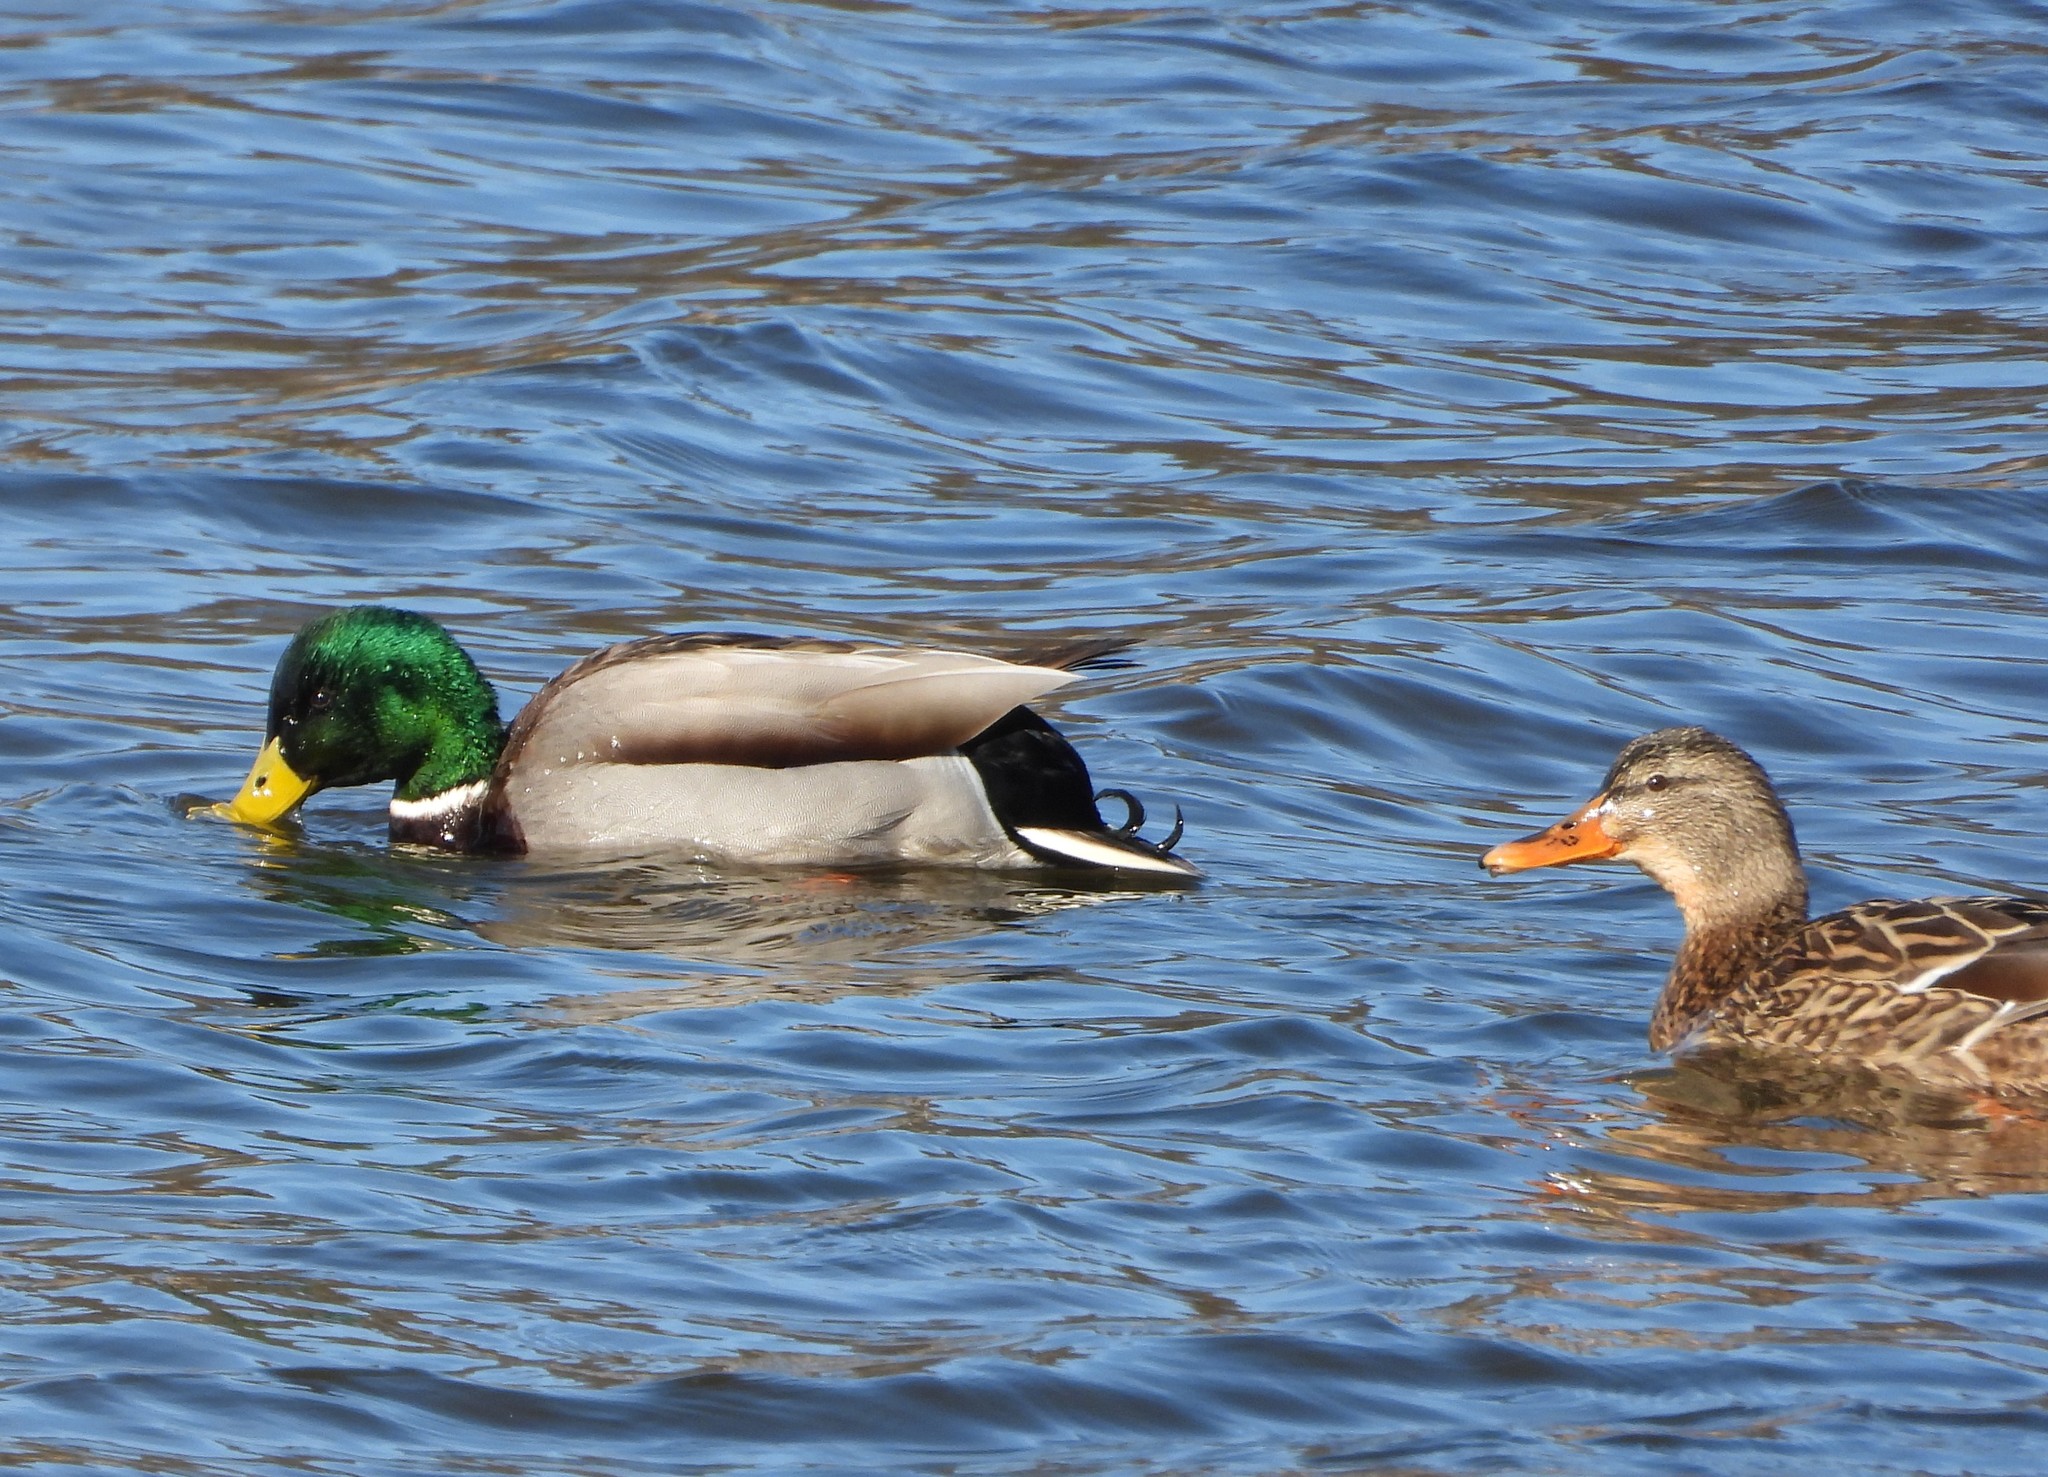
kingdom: Animalia
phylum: Chordata
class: Aves
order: Anseriformes
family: Anatidae
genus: Anas
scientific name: Anas platyrhynchos
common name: Mallard
